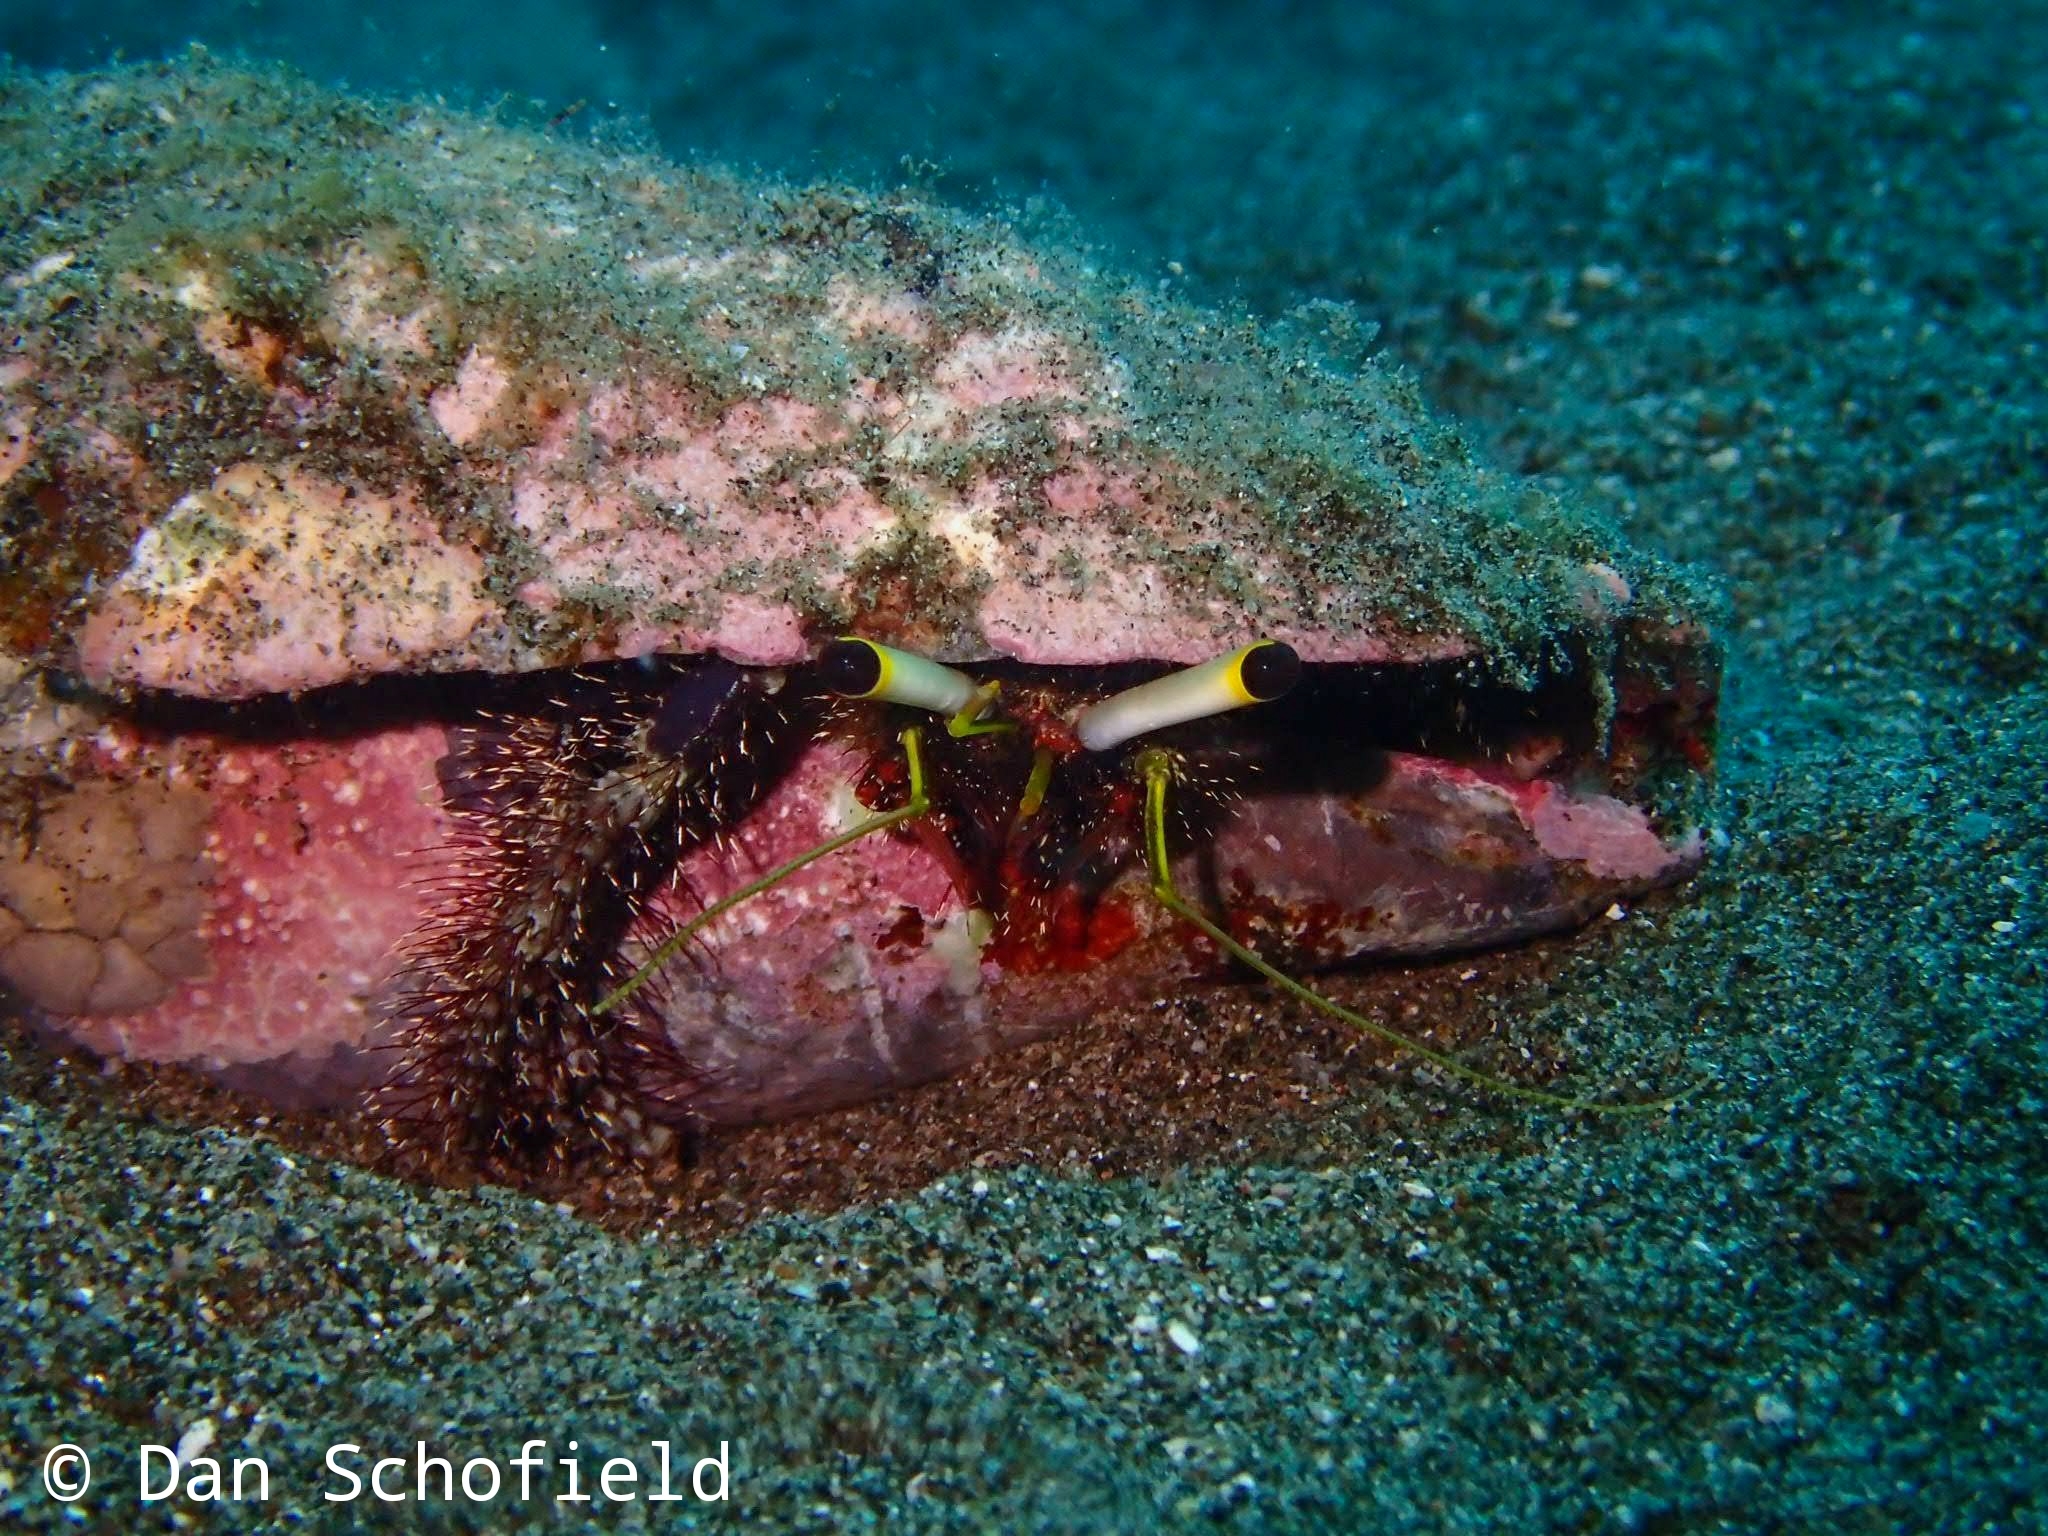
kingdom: Animalia
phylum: Arthropoda
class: Malacostraca
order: Decapoda
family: Diogenidae
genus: Dardanus
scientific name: Dardanus lagopodes
